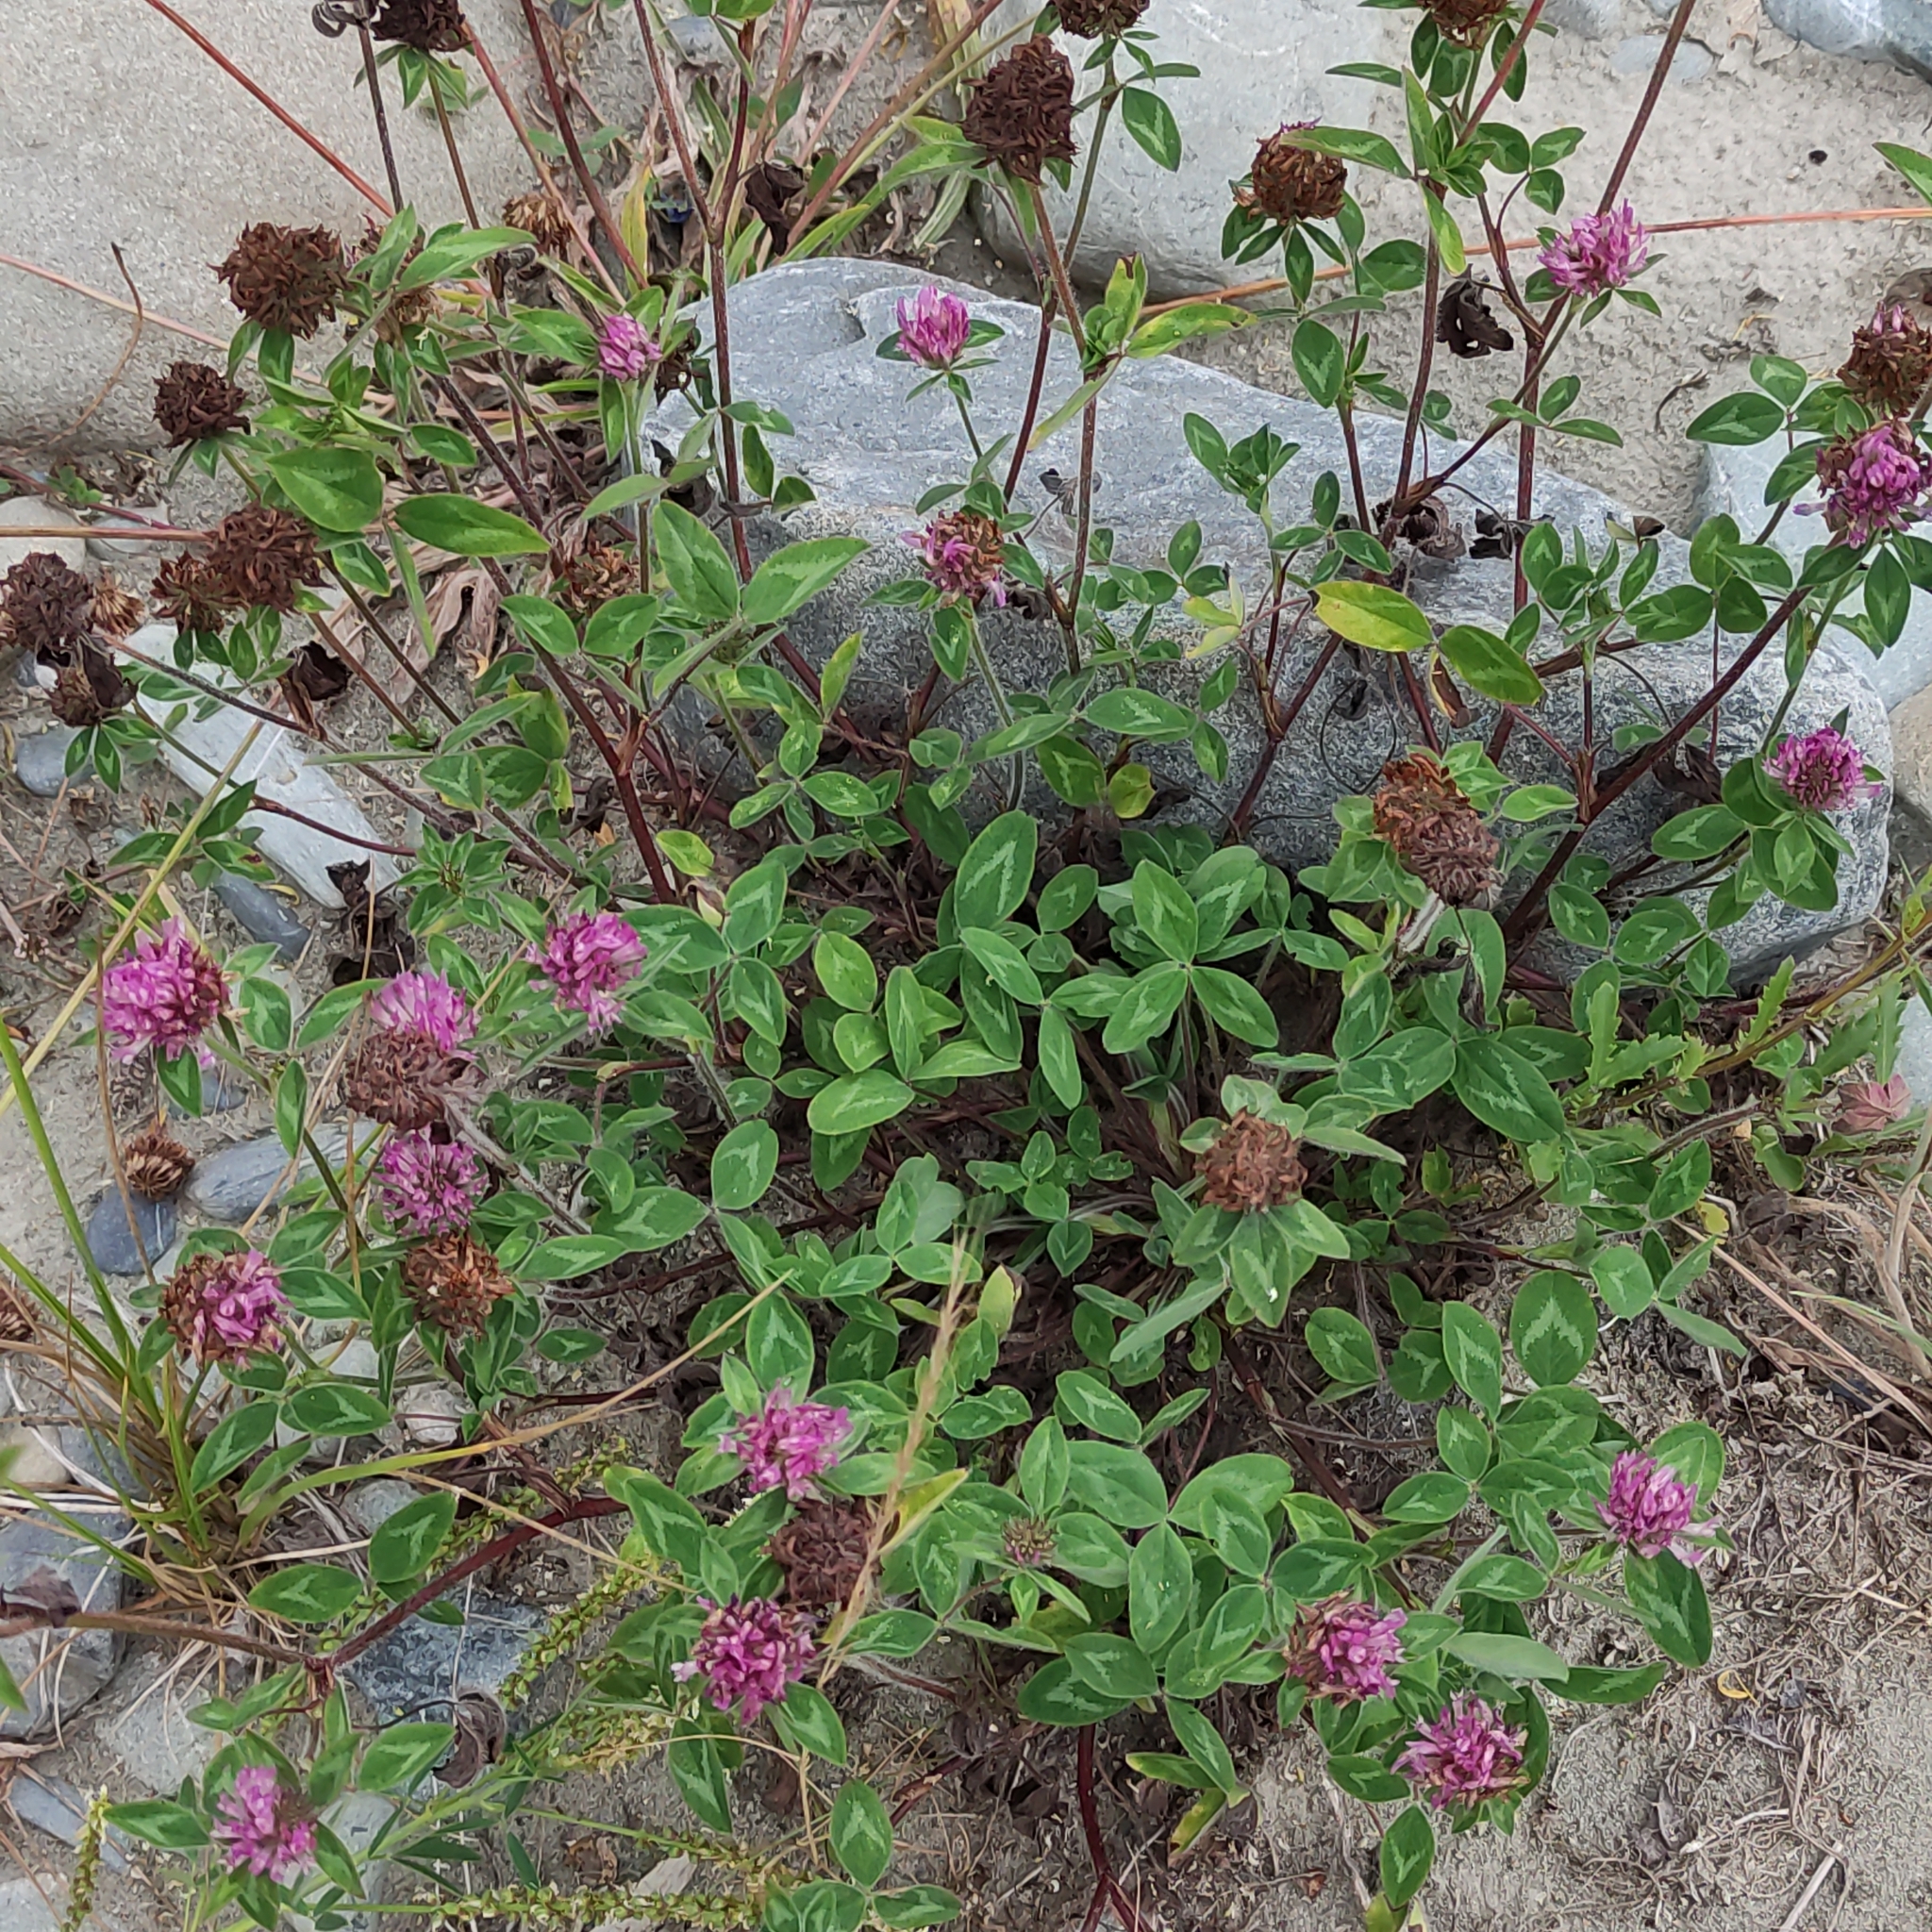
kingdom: Plantae
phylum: Tracheophyta
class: Magnoliopsida
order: Fabales
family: Fabaceae
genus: Trifolium
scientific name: Trifolium pratense
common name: Red clover
